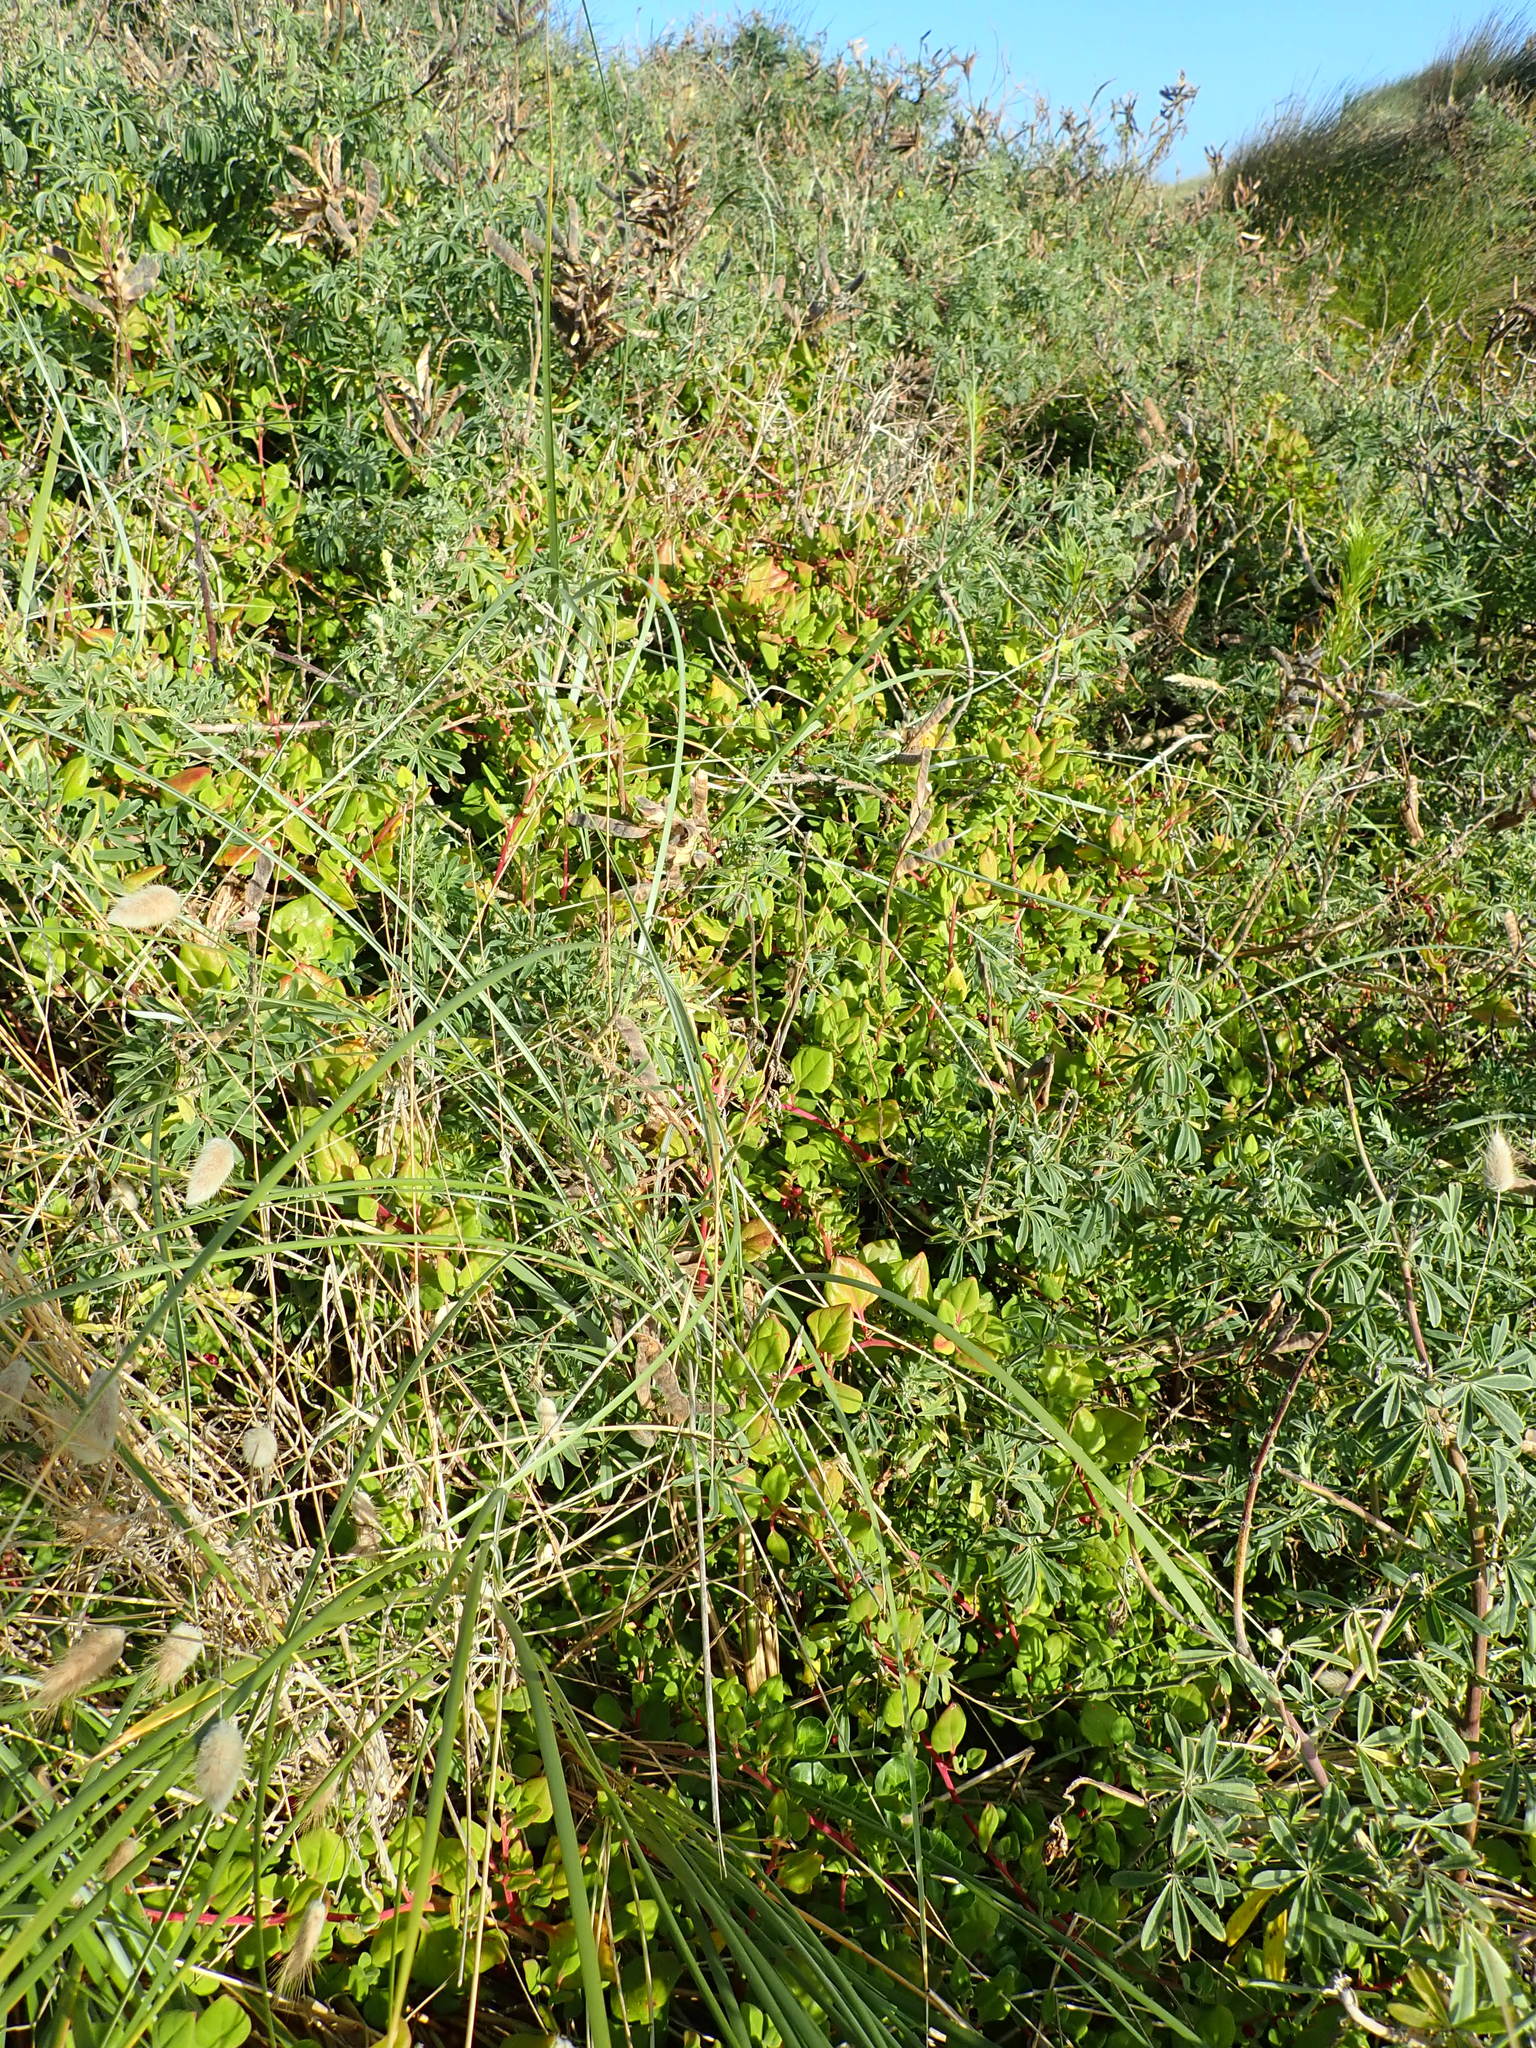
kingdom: Plantae
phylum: Tracheophyta
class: Magnoliopsida
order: Fabales
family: Fabaceae
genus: Lupinus
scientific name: Lupinus arboreus
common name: Yellow bush lupine
